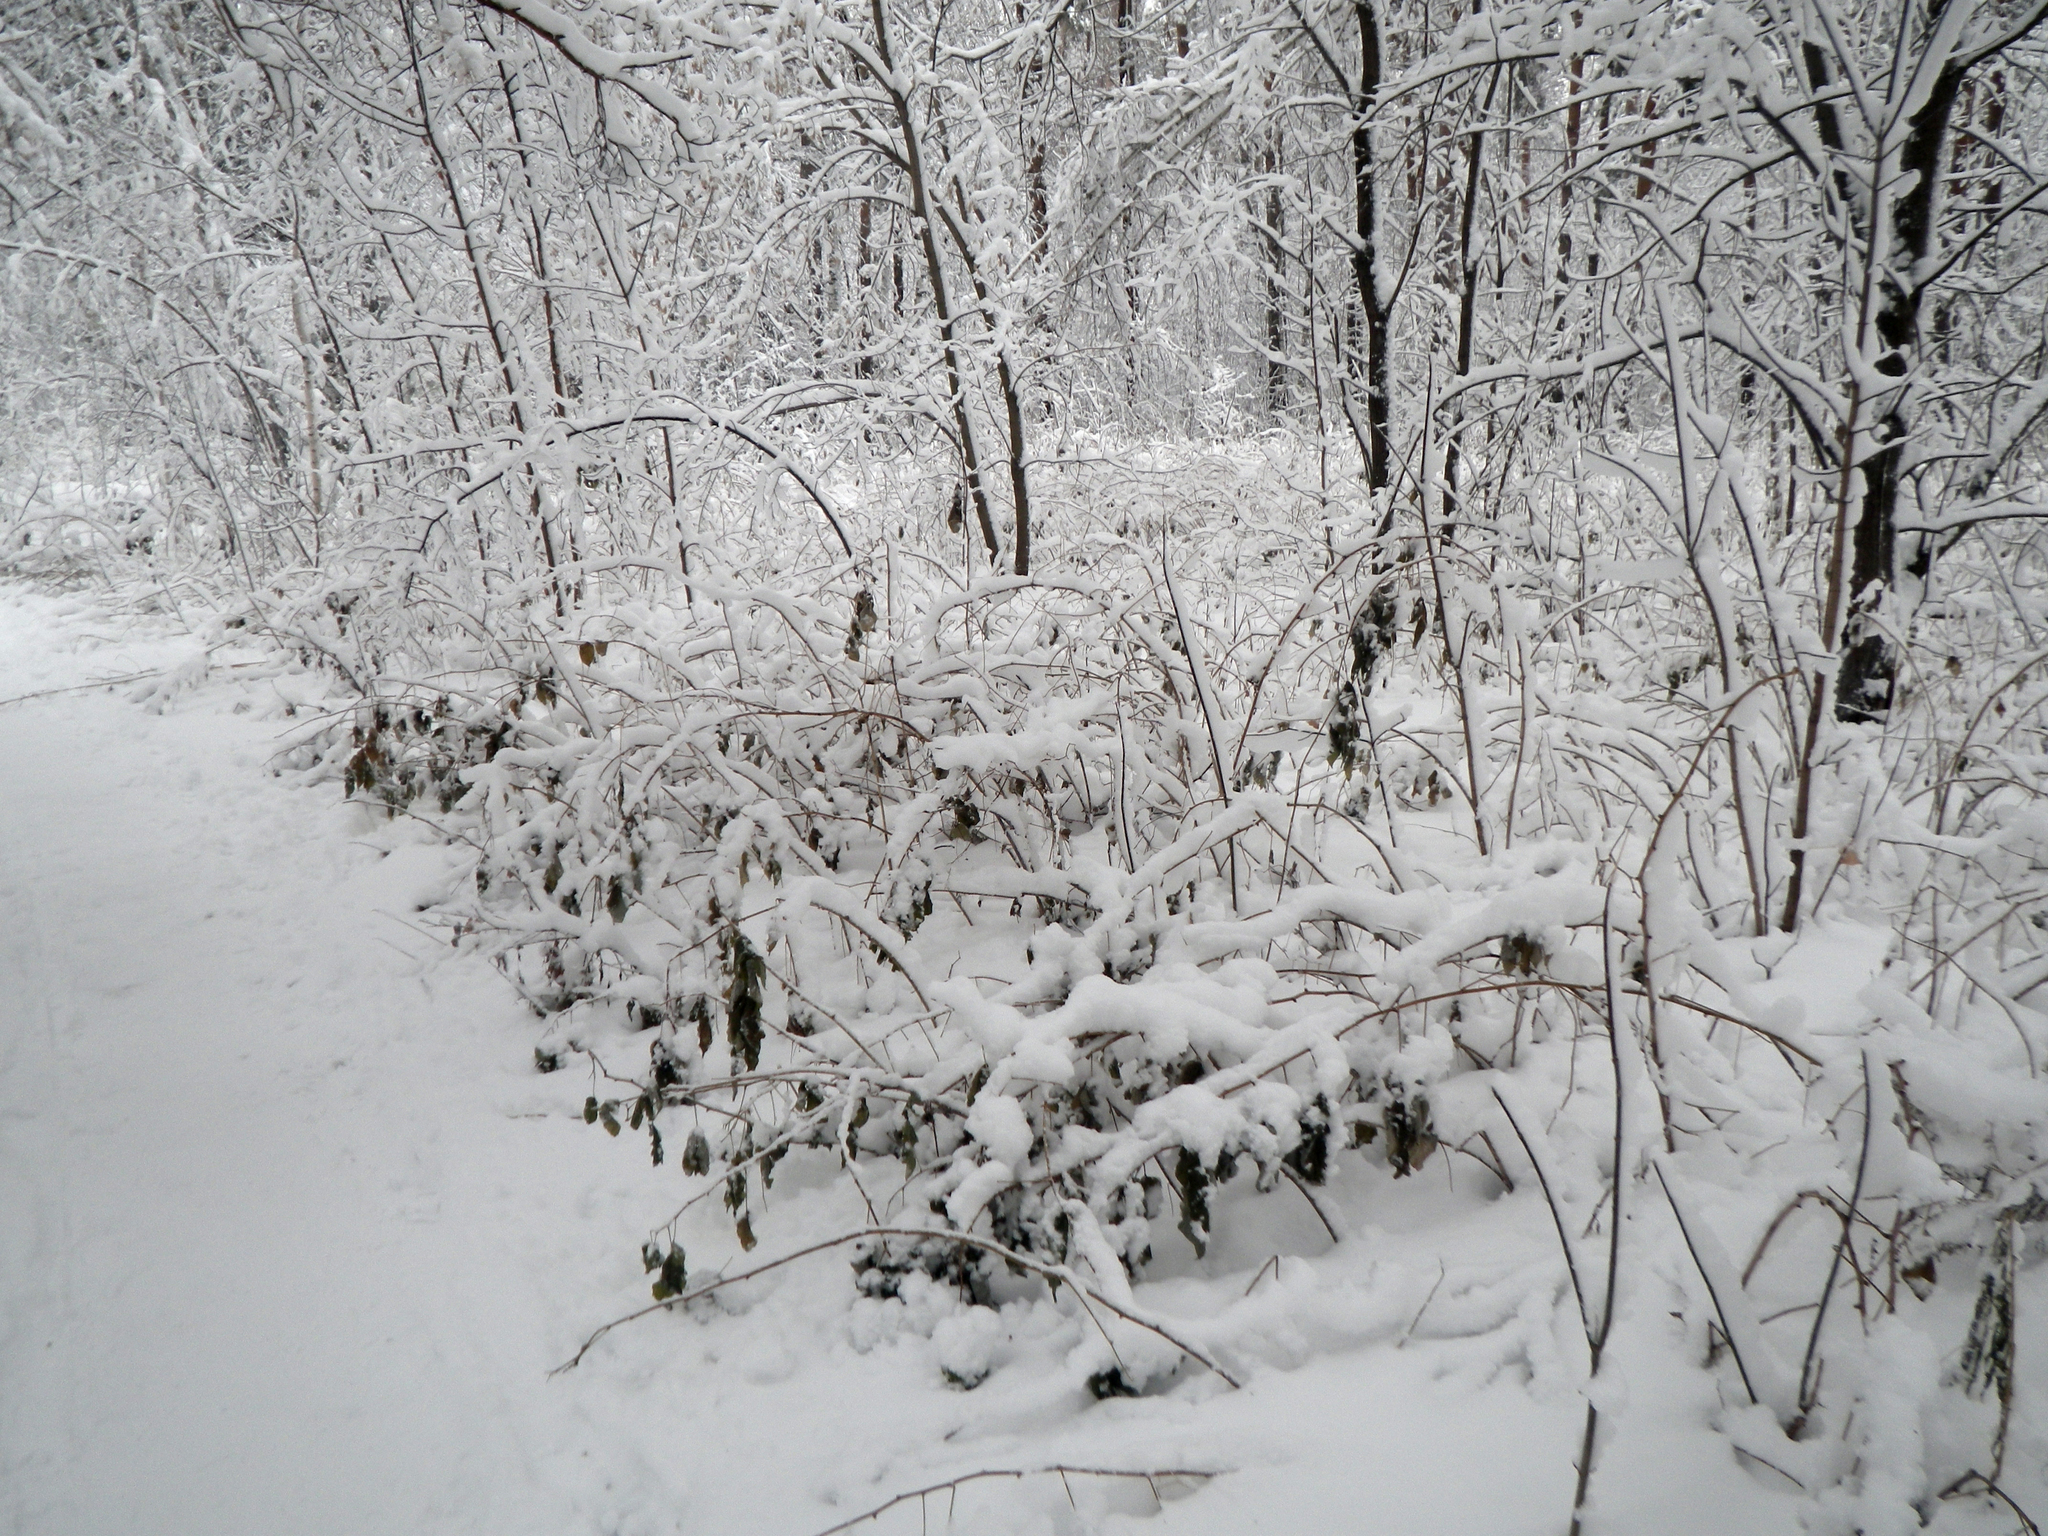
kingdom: Plantae
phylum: Tracheophyta
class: Magnoliopsida
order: Rosales
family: Rosaceae
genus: Rubus
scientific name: Rubus idaeus
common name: Raspberry
